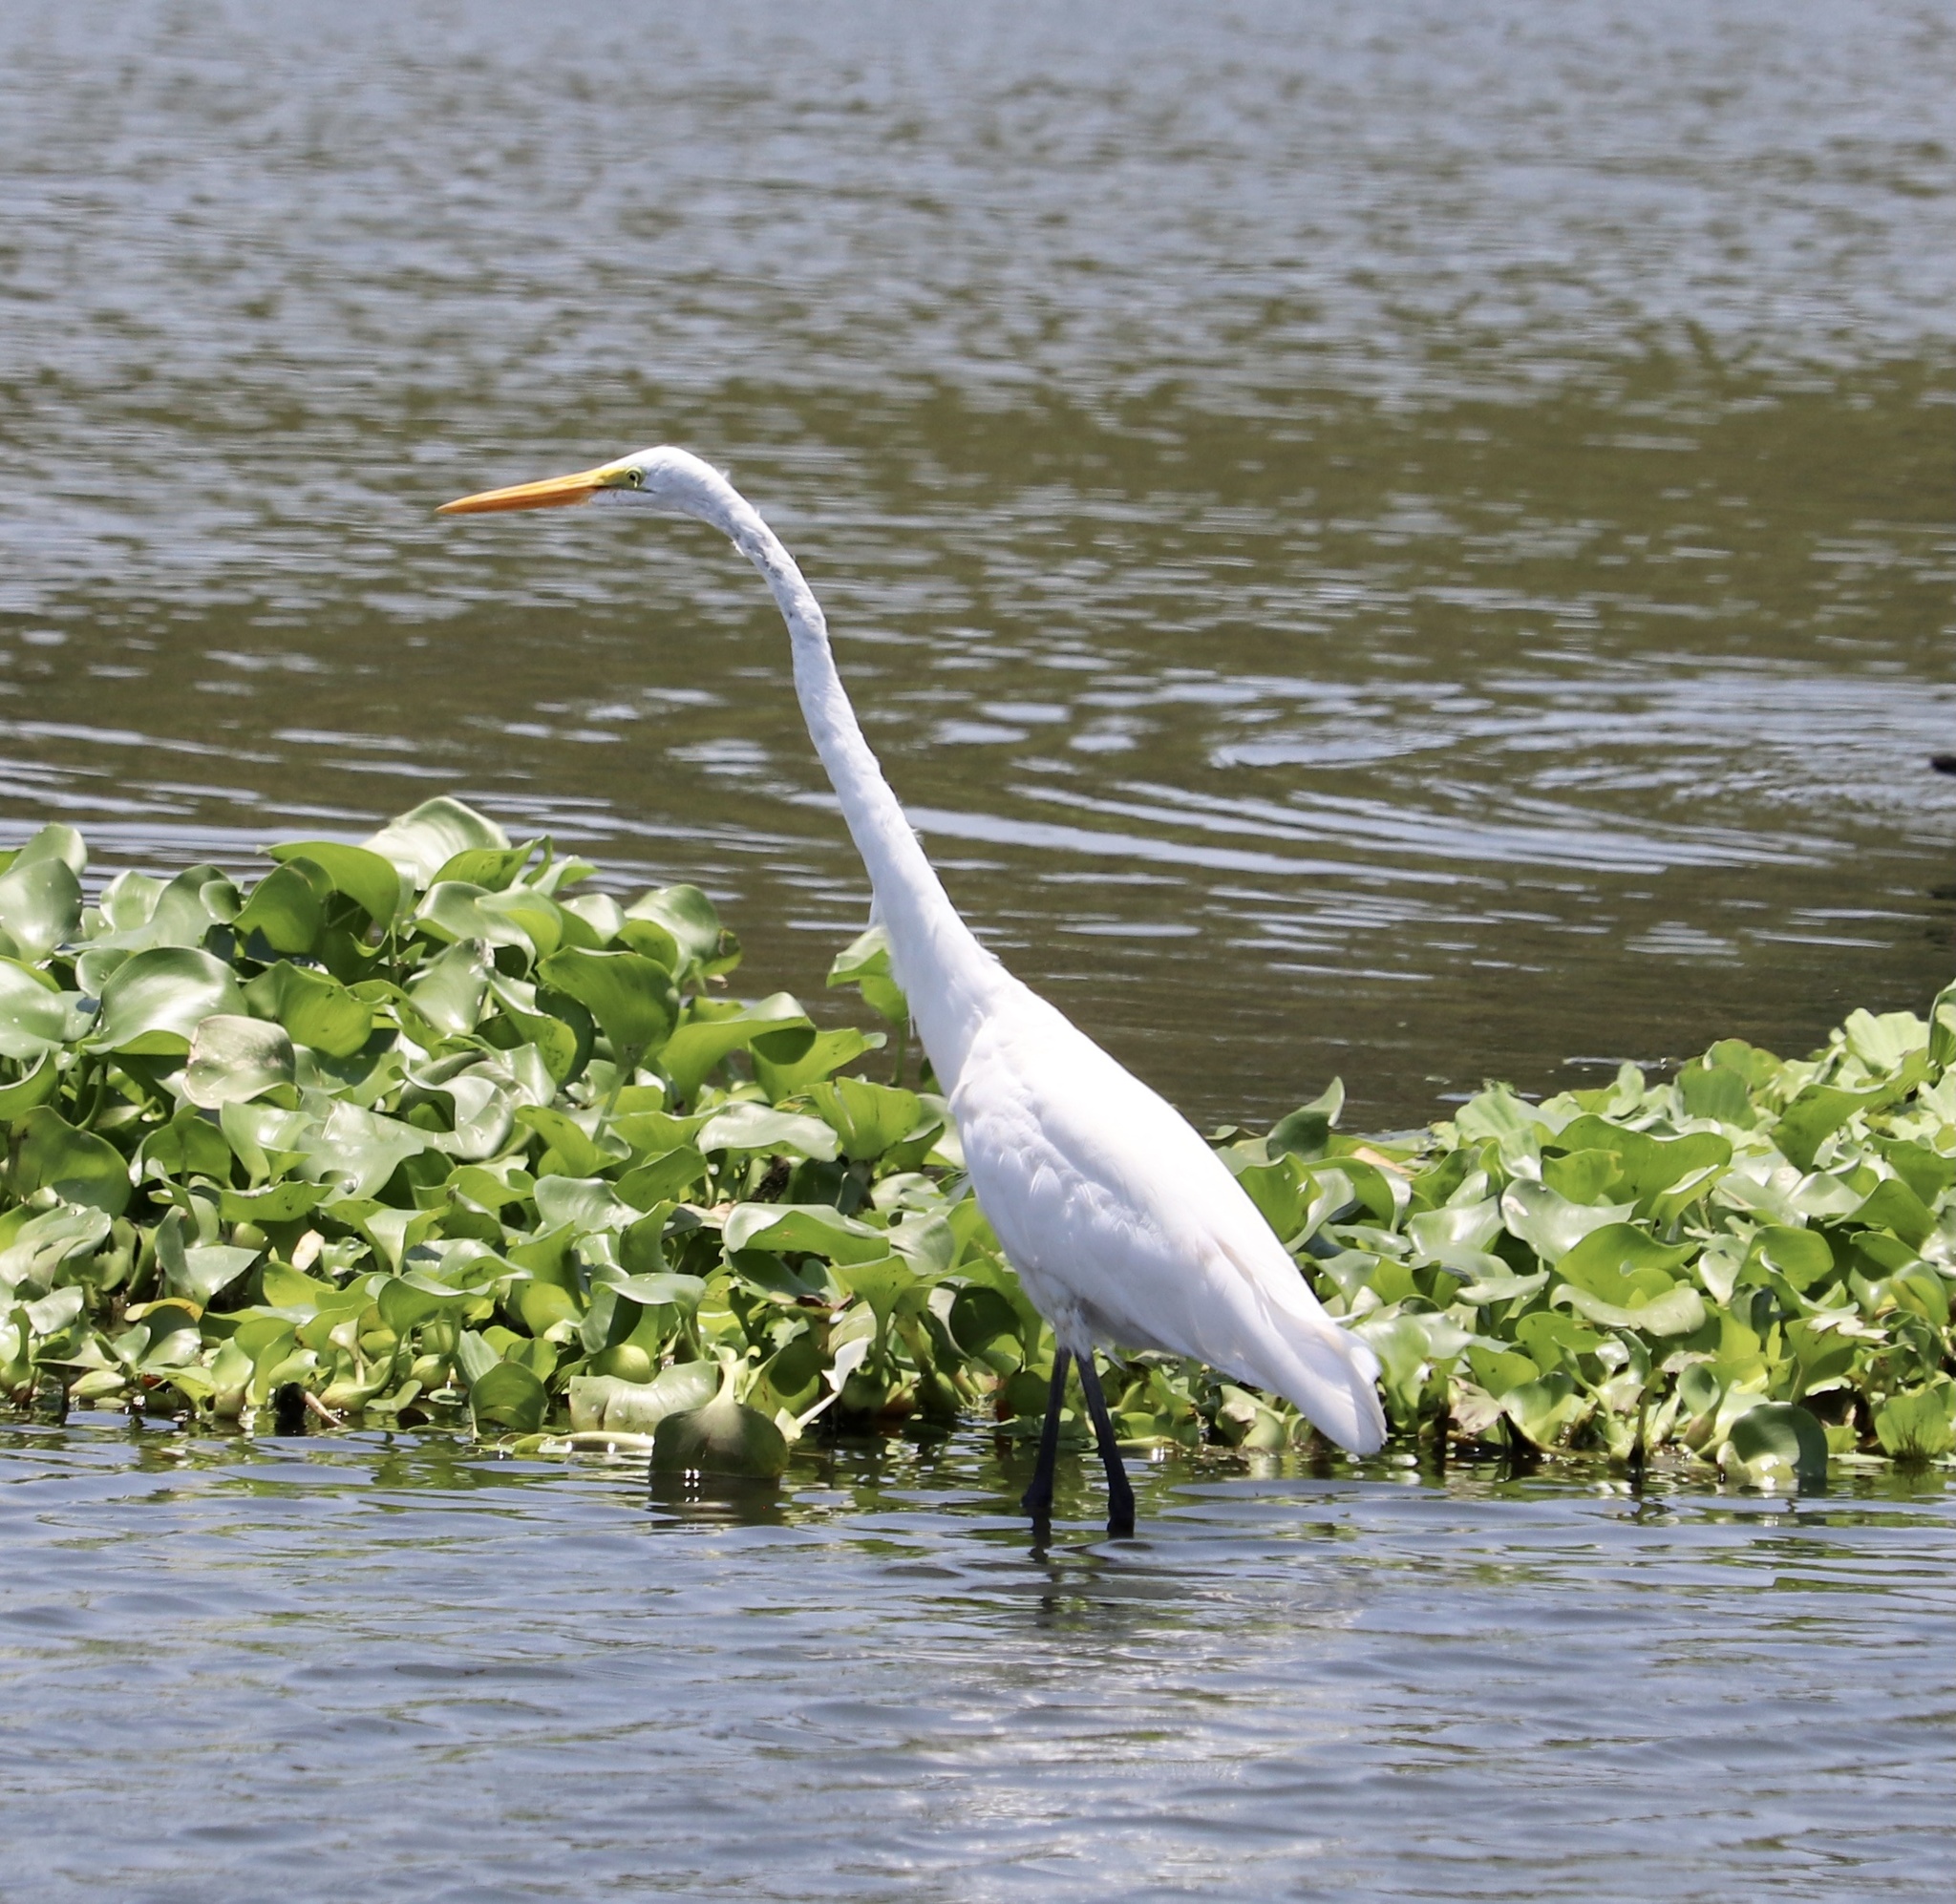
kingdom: Animalia
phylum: Chordata
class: Aves
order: Pelecaniformes
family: Ardeidae
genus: Ardea
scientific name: Ardea alba
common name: Great egret
